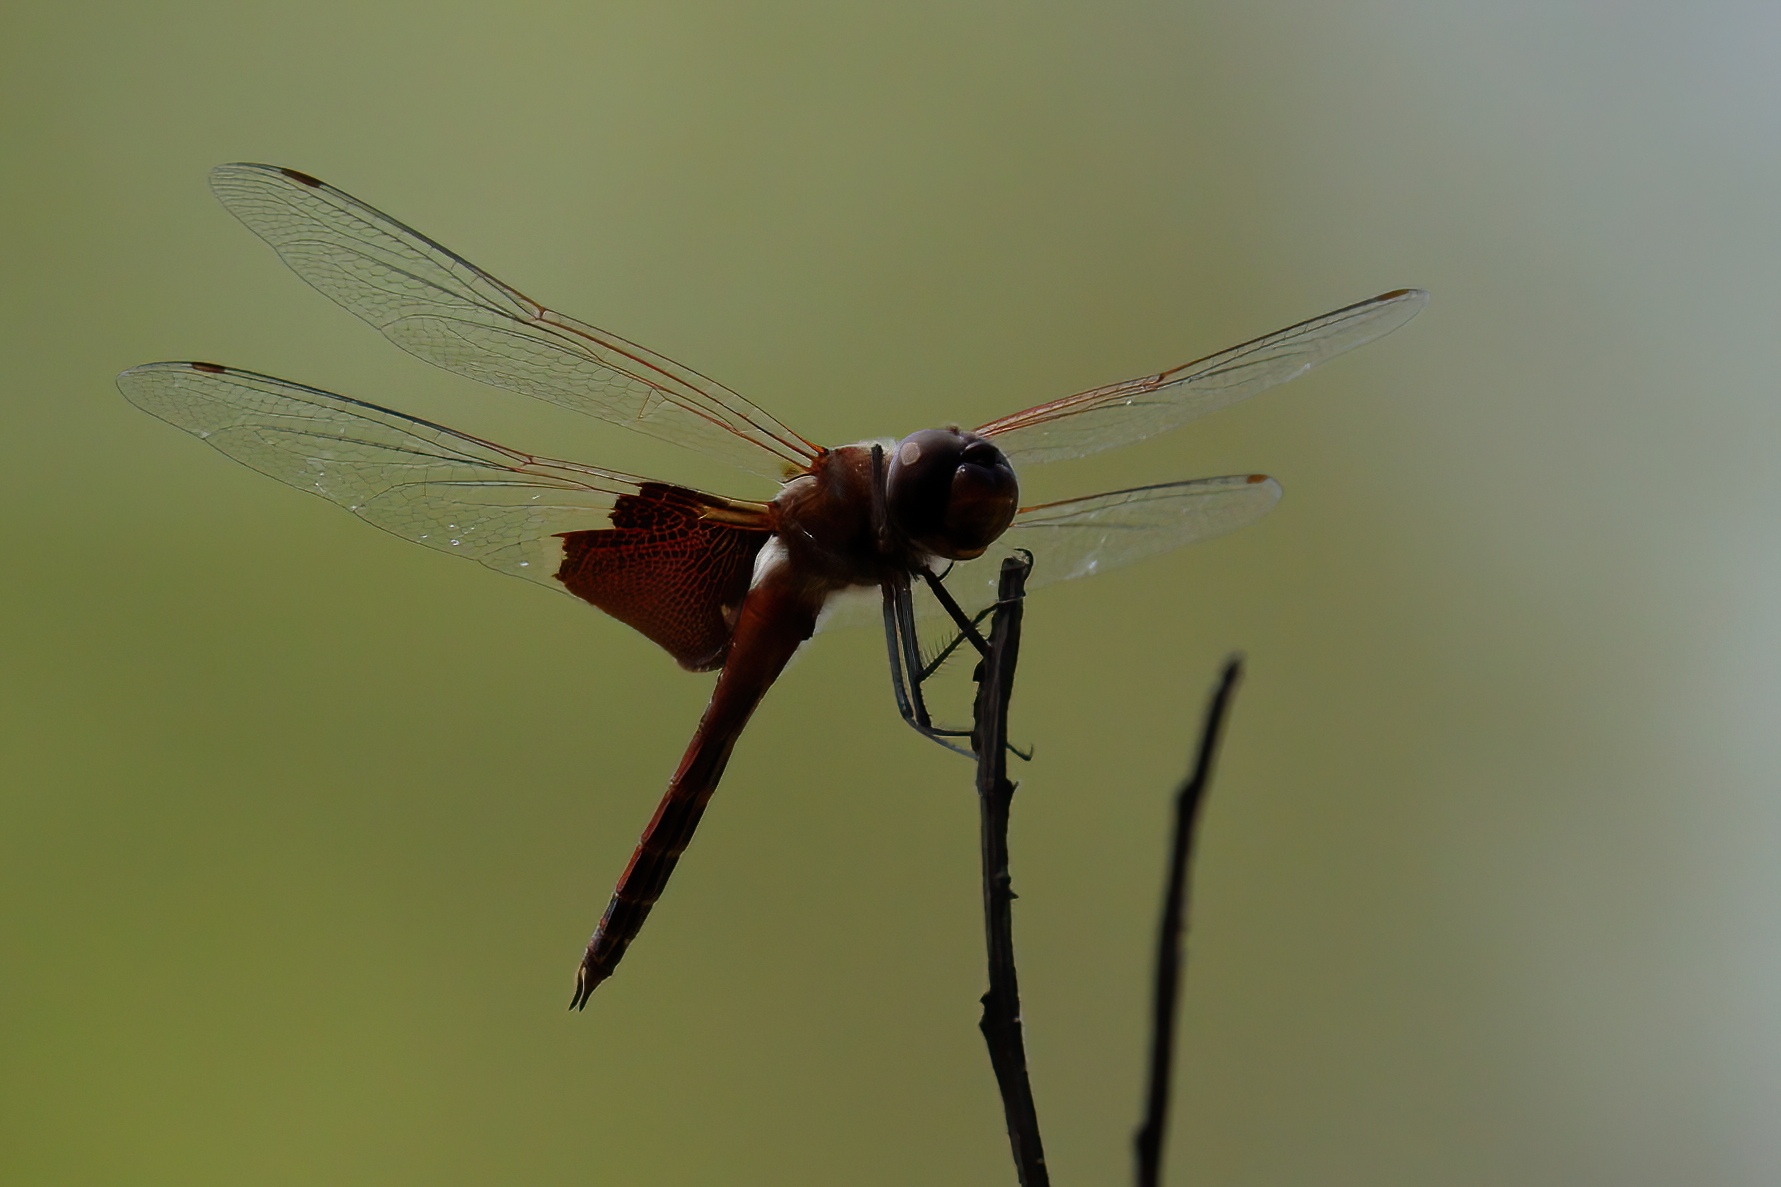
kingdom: Animalia
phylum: Arthropoda
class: Insecta
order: Odonata
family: Libellulidae
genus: Tramea
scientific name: Tramea carolina
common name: Carolina saddlebags
